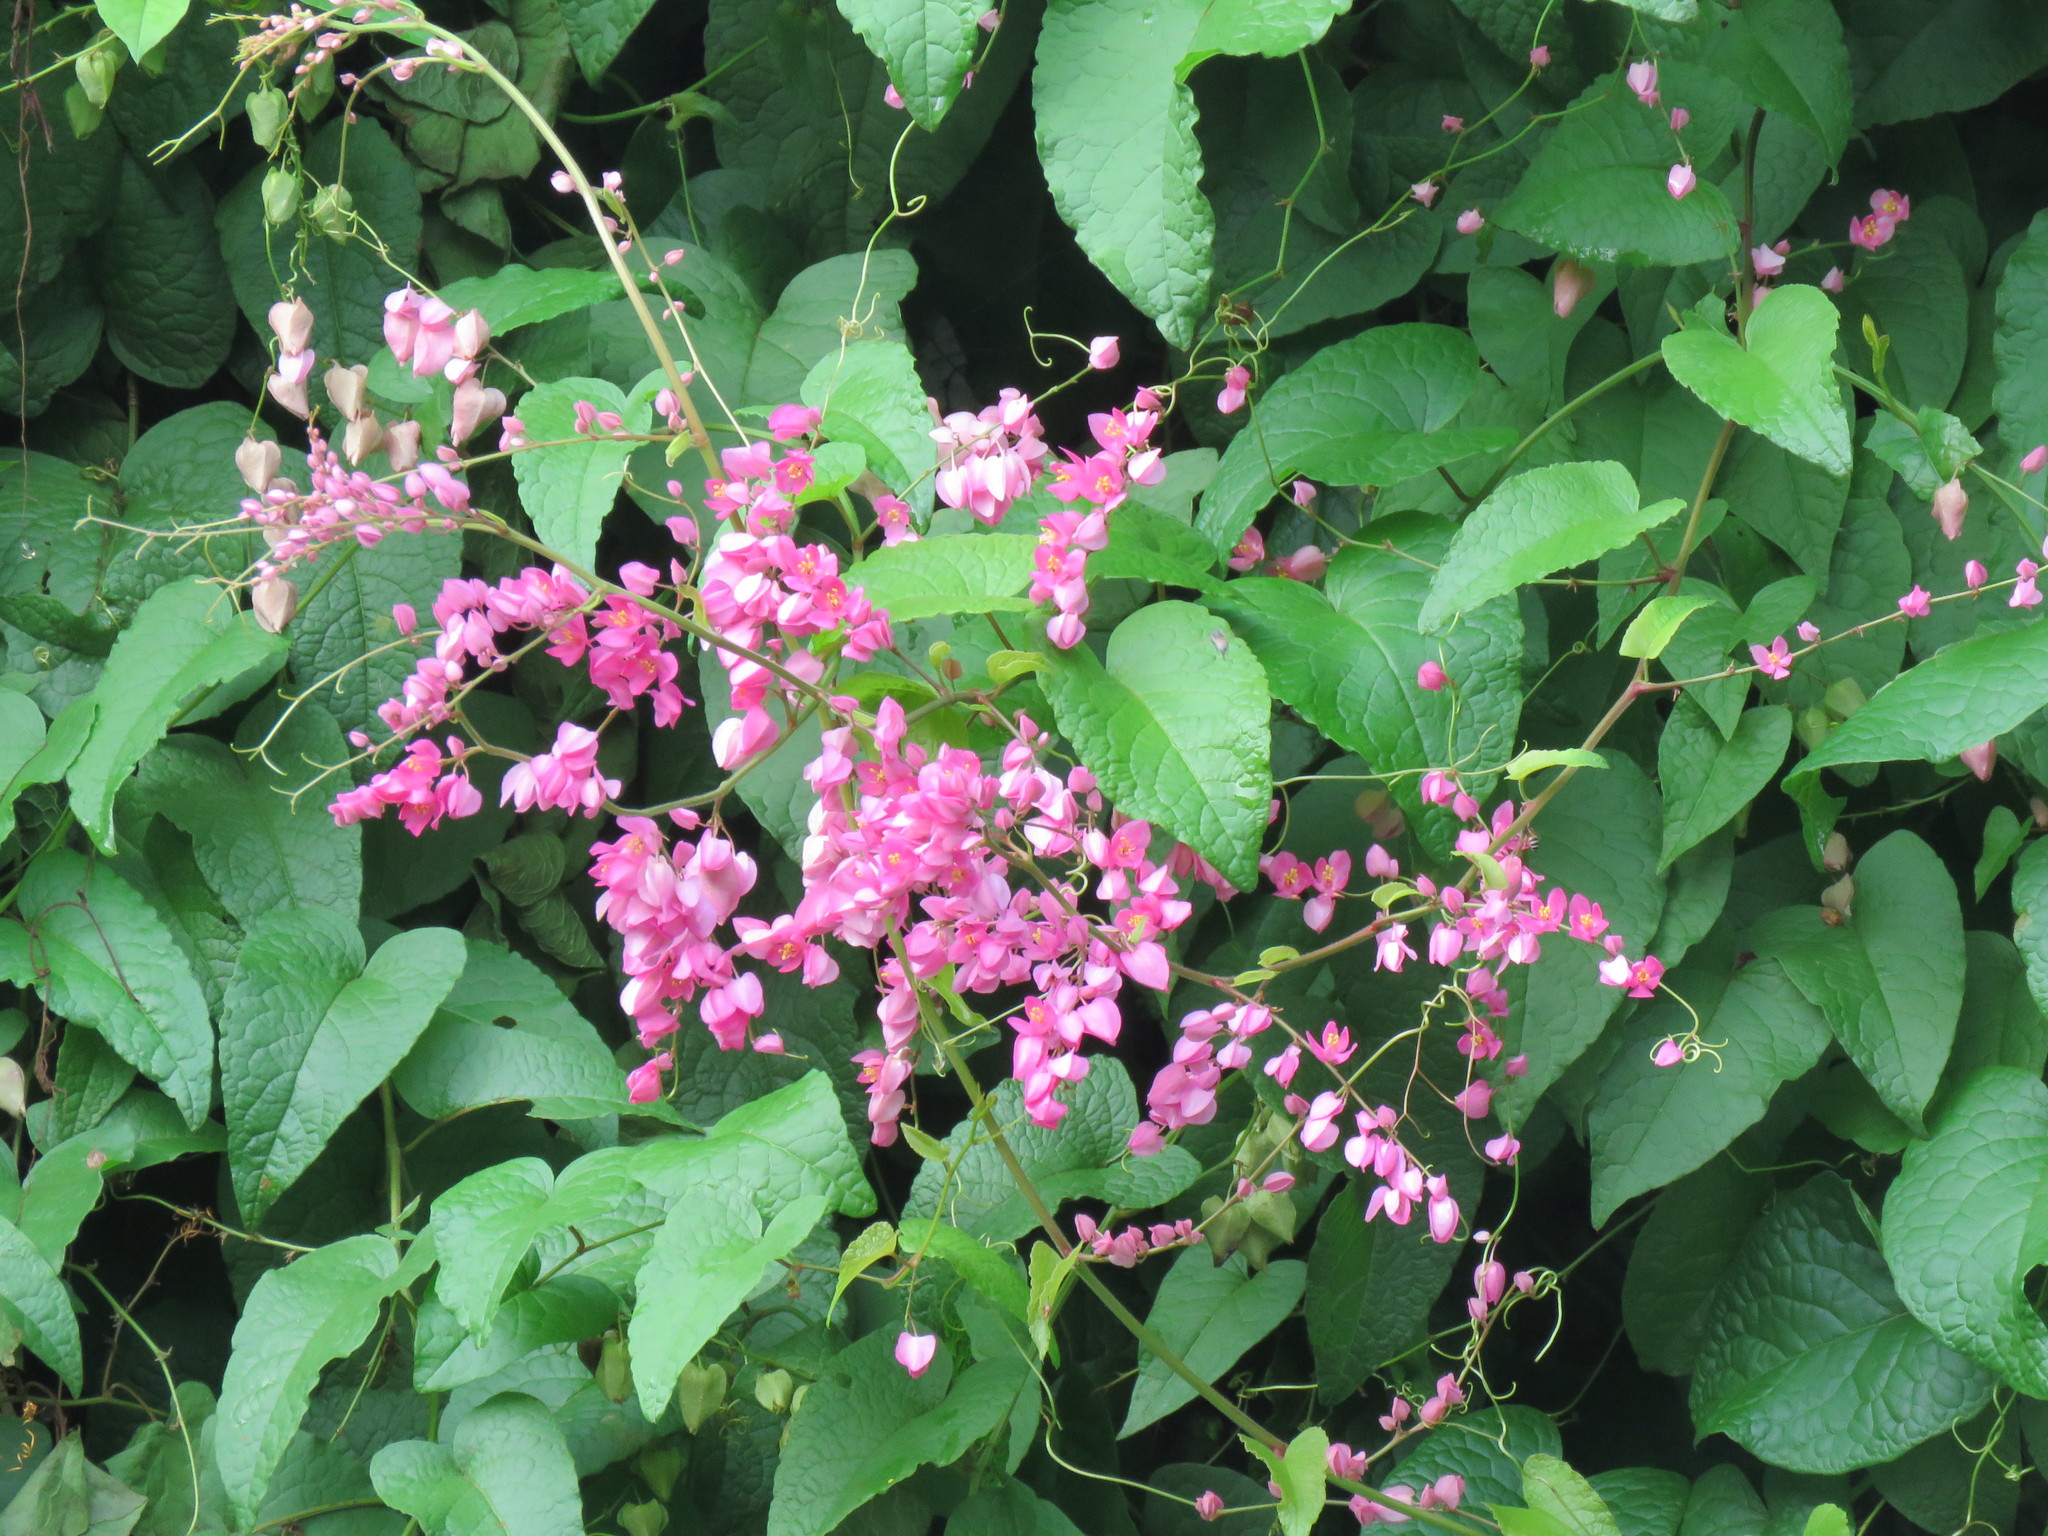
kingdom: Plantae
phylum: Tracheophyta
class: Magnoliopsida
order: Caryophyllales
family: Polygonaceae
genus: Antigonon
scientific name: Antigonon leptopus
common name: Coral vine
